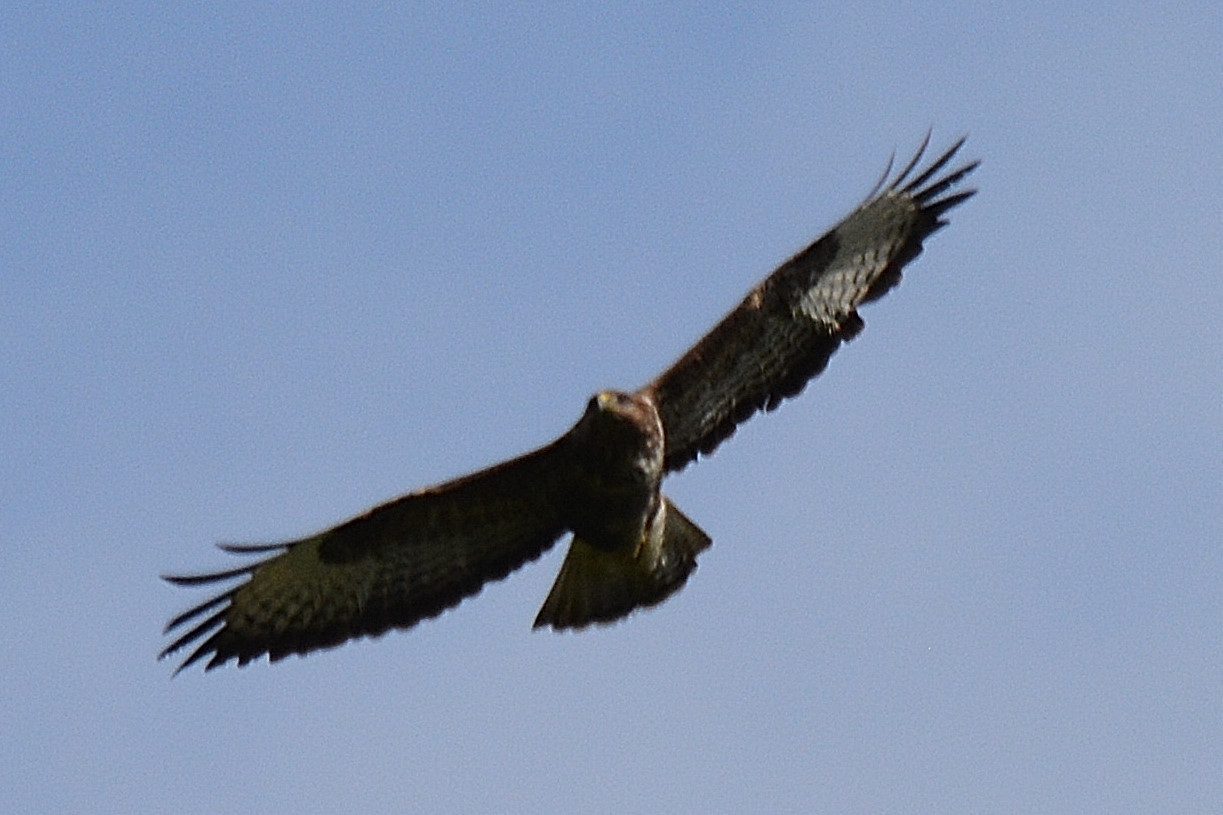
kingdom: Animalia
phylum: Chordata
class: Aves
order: Accipitriformes
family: Accipitridae
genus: Buteo
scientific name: Buteo buteo
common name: Common buzzard
